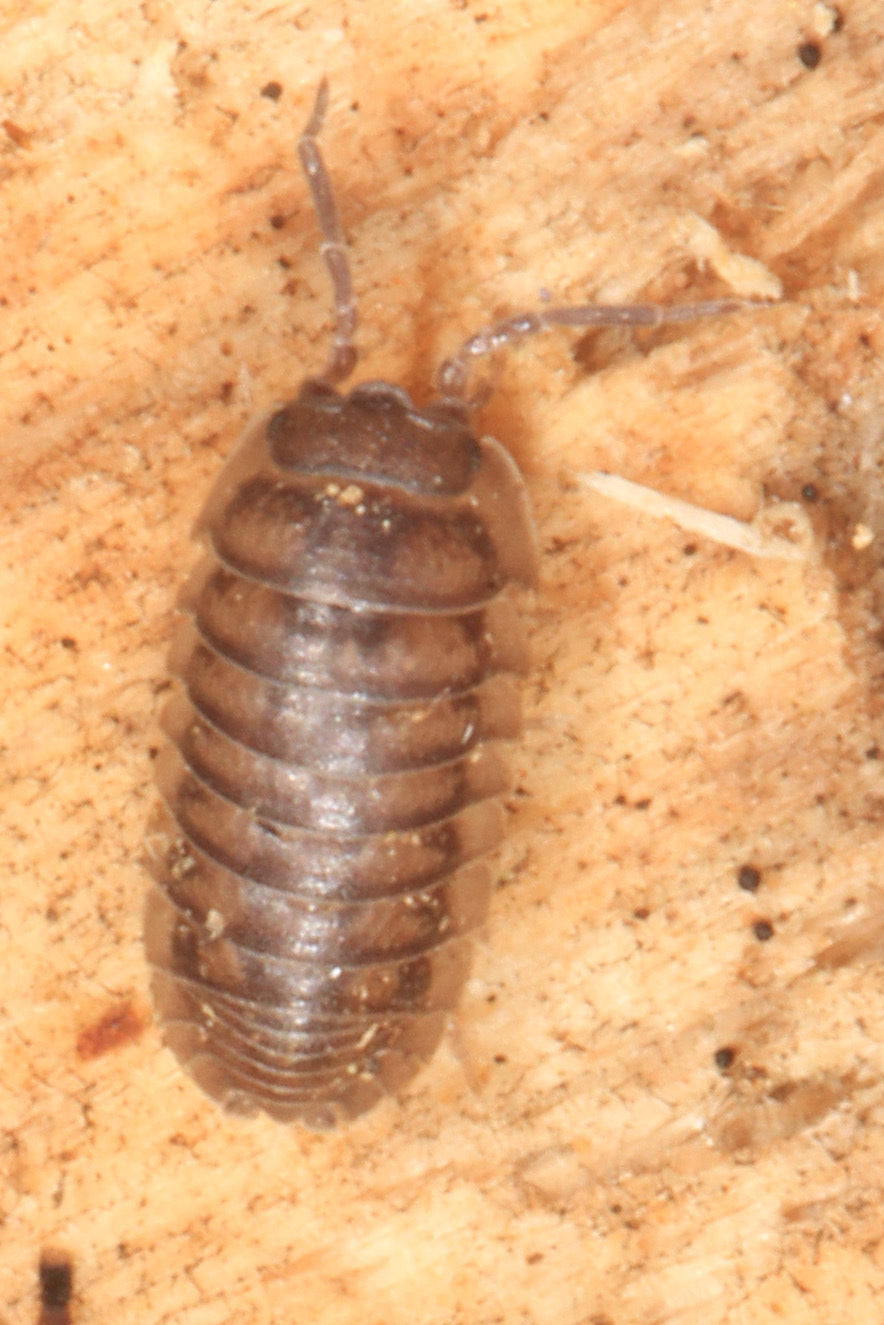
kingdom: Animalia
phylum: Arthropoda
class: Malacostraca
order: Isopoda
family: Armadillidiidae
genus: Armadillidium
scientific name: Armadillidium nasatum
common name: Isopod
